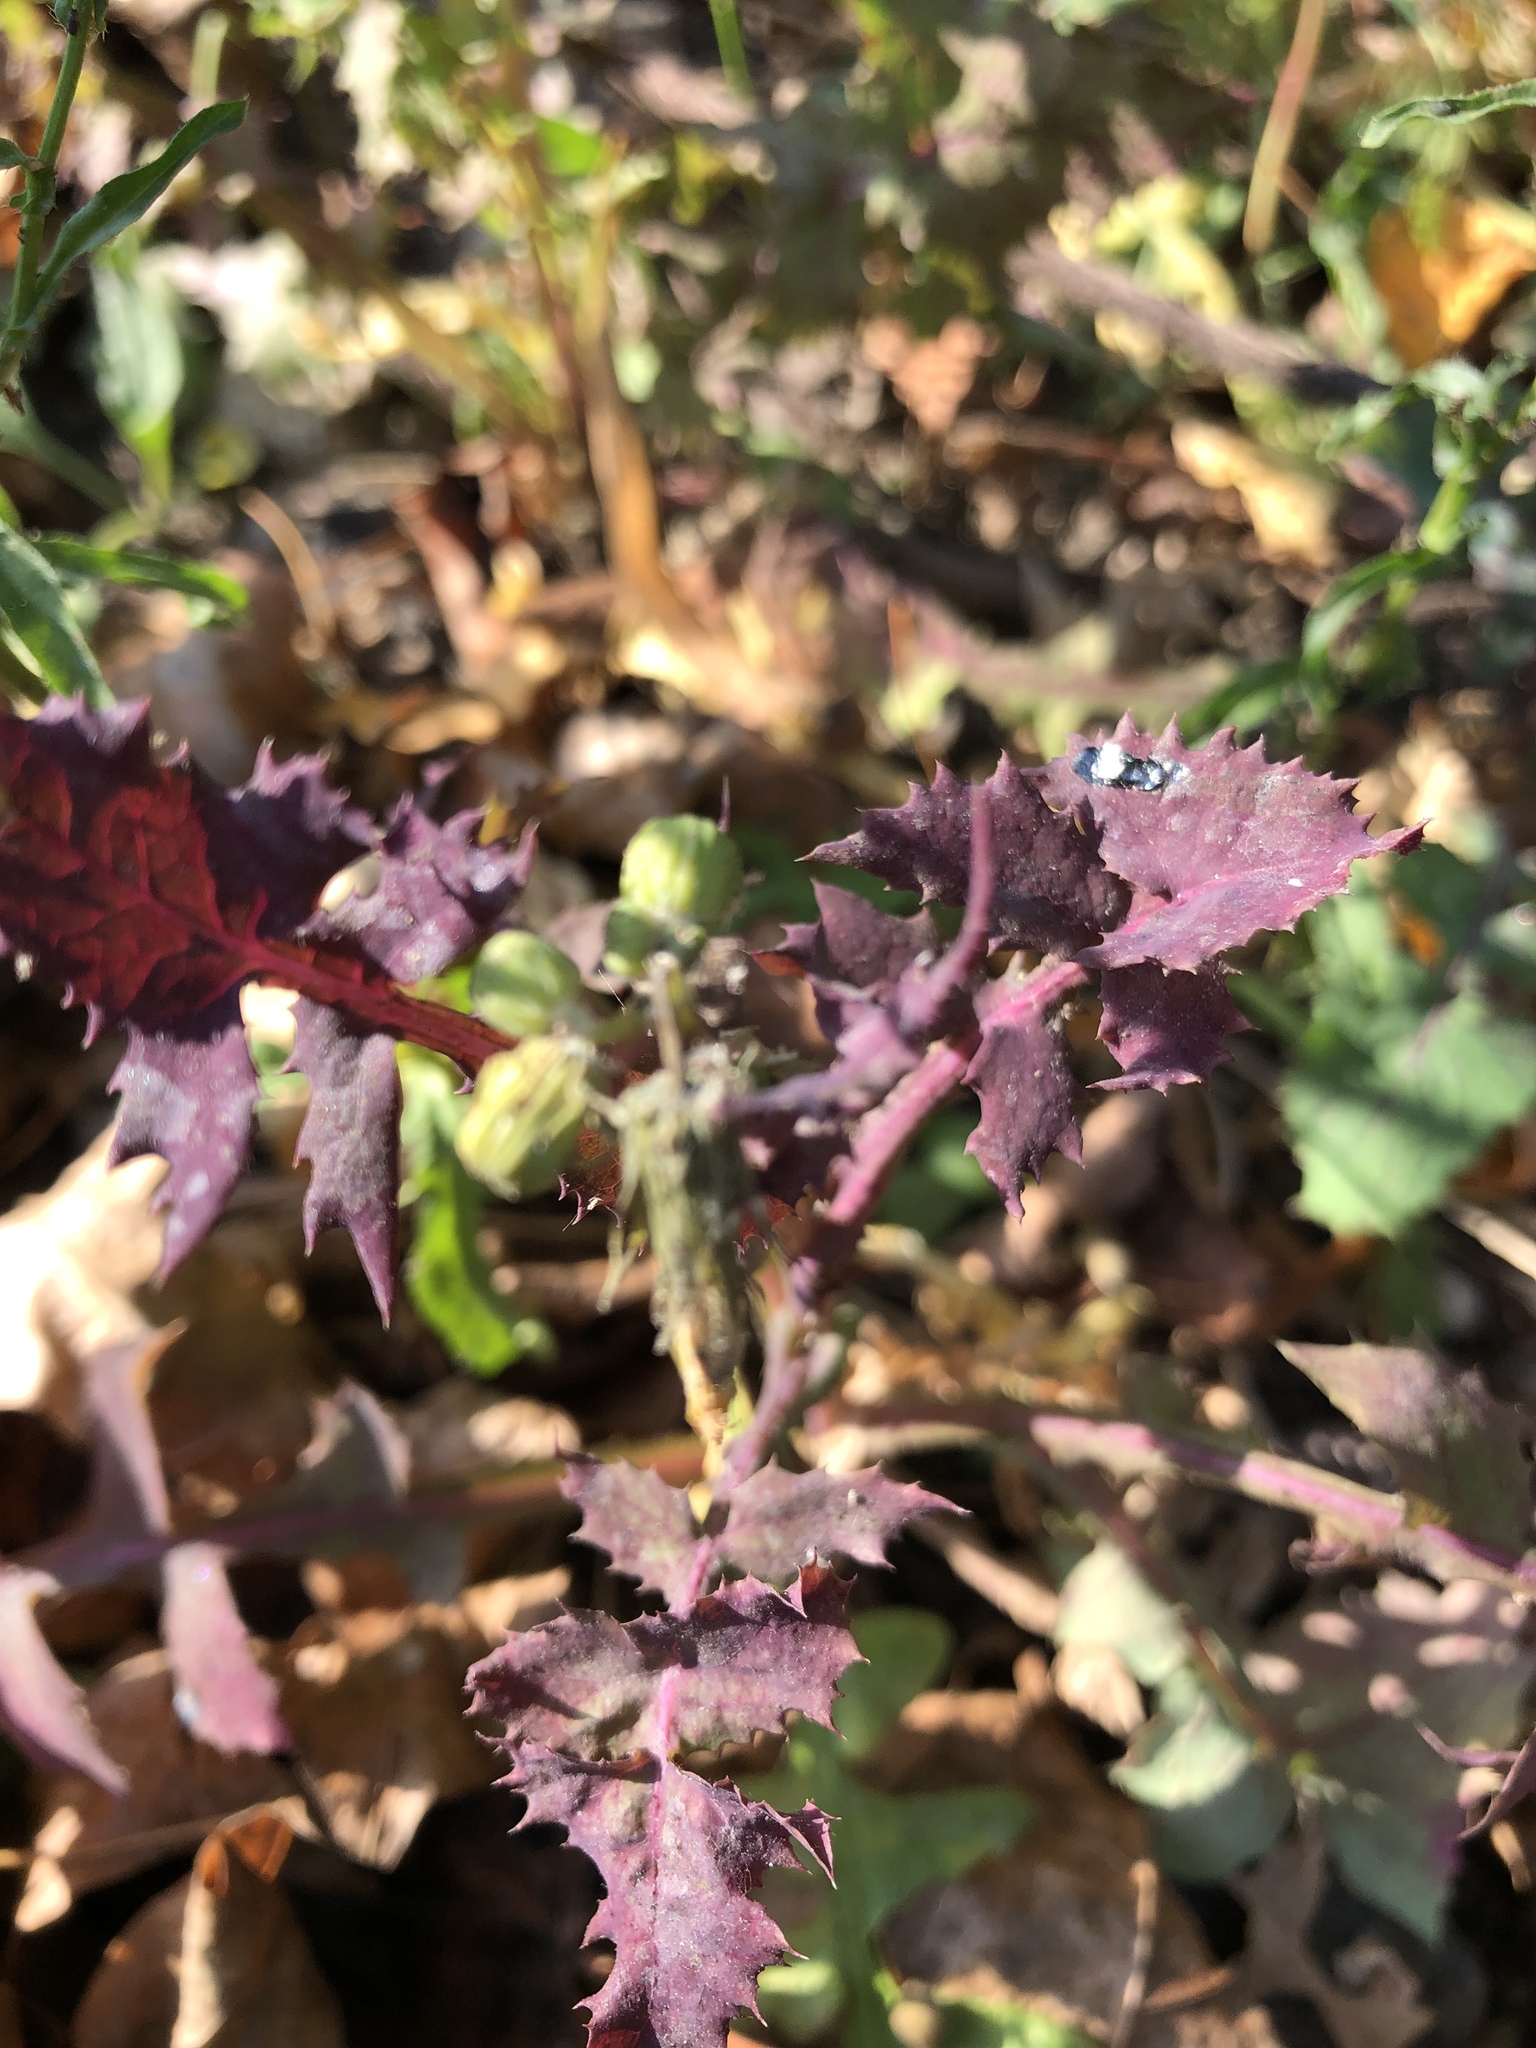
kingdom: Plantae
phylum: Tracheophyta
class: Magnoliopsida
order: Asterales
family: Asteraceae
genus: Sonchus
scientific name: Sonchus oleraceus
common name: Common sowthistle
